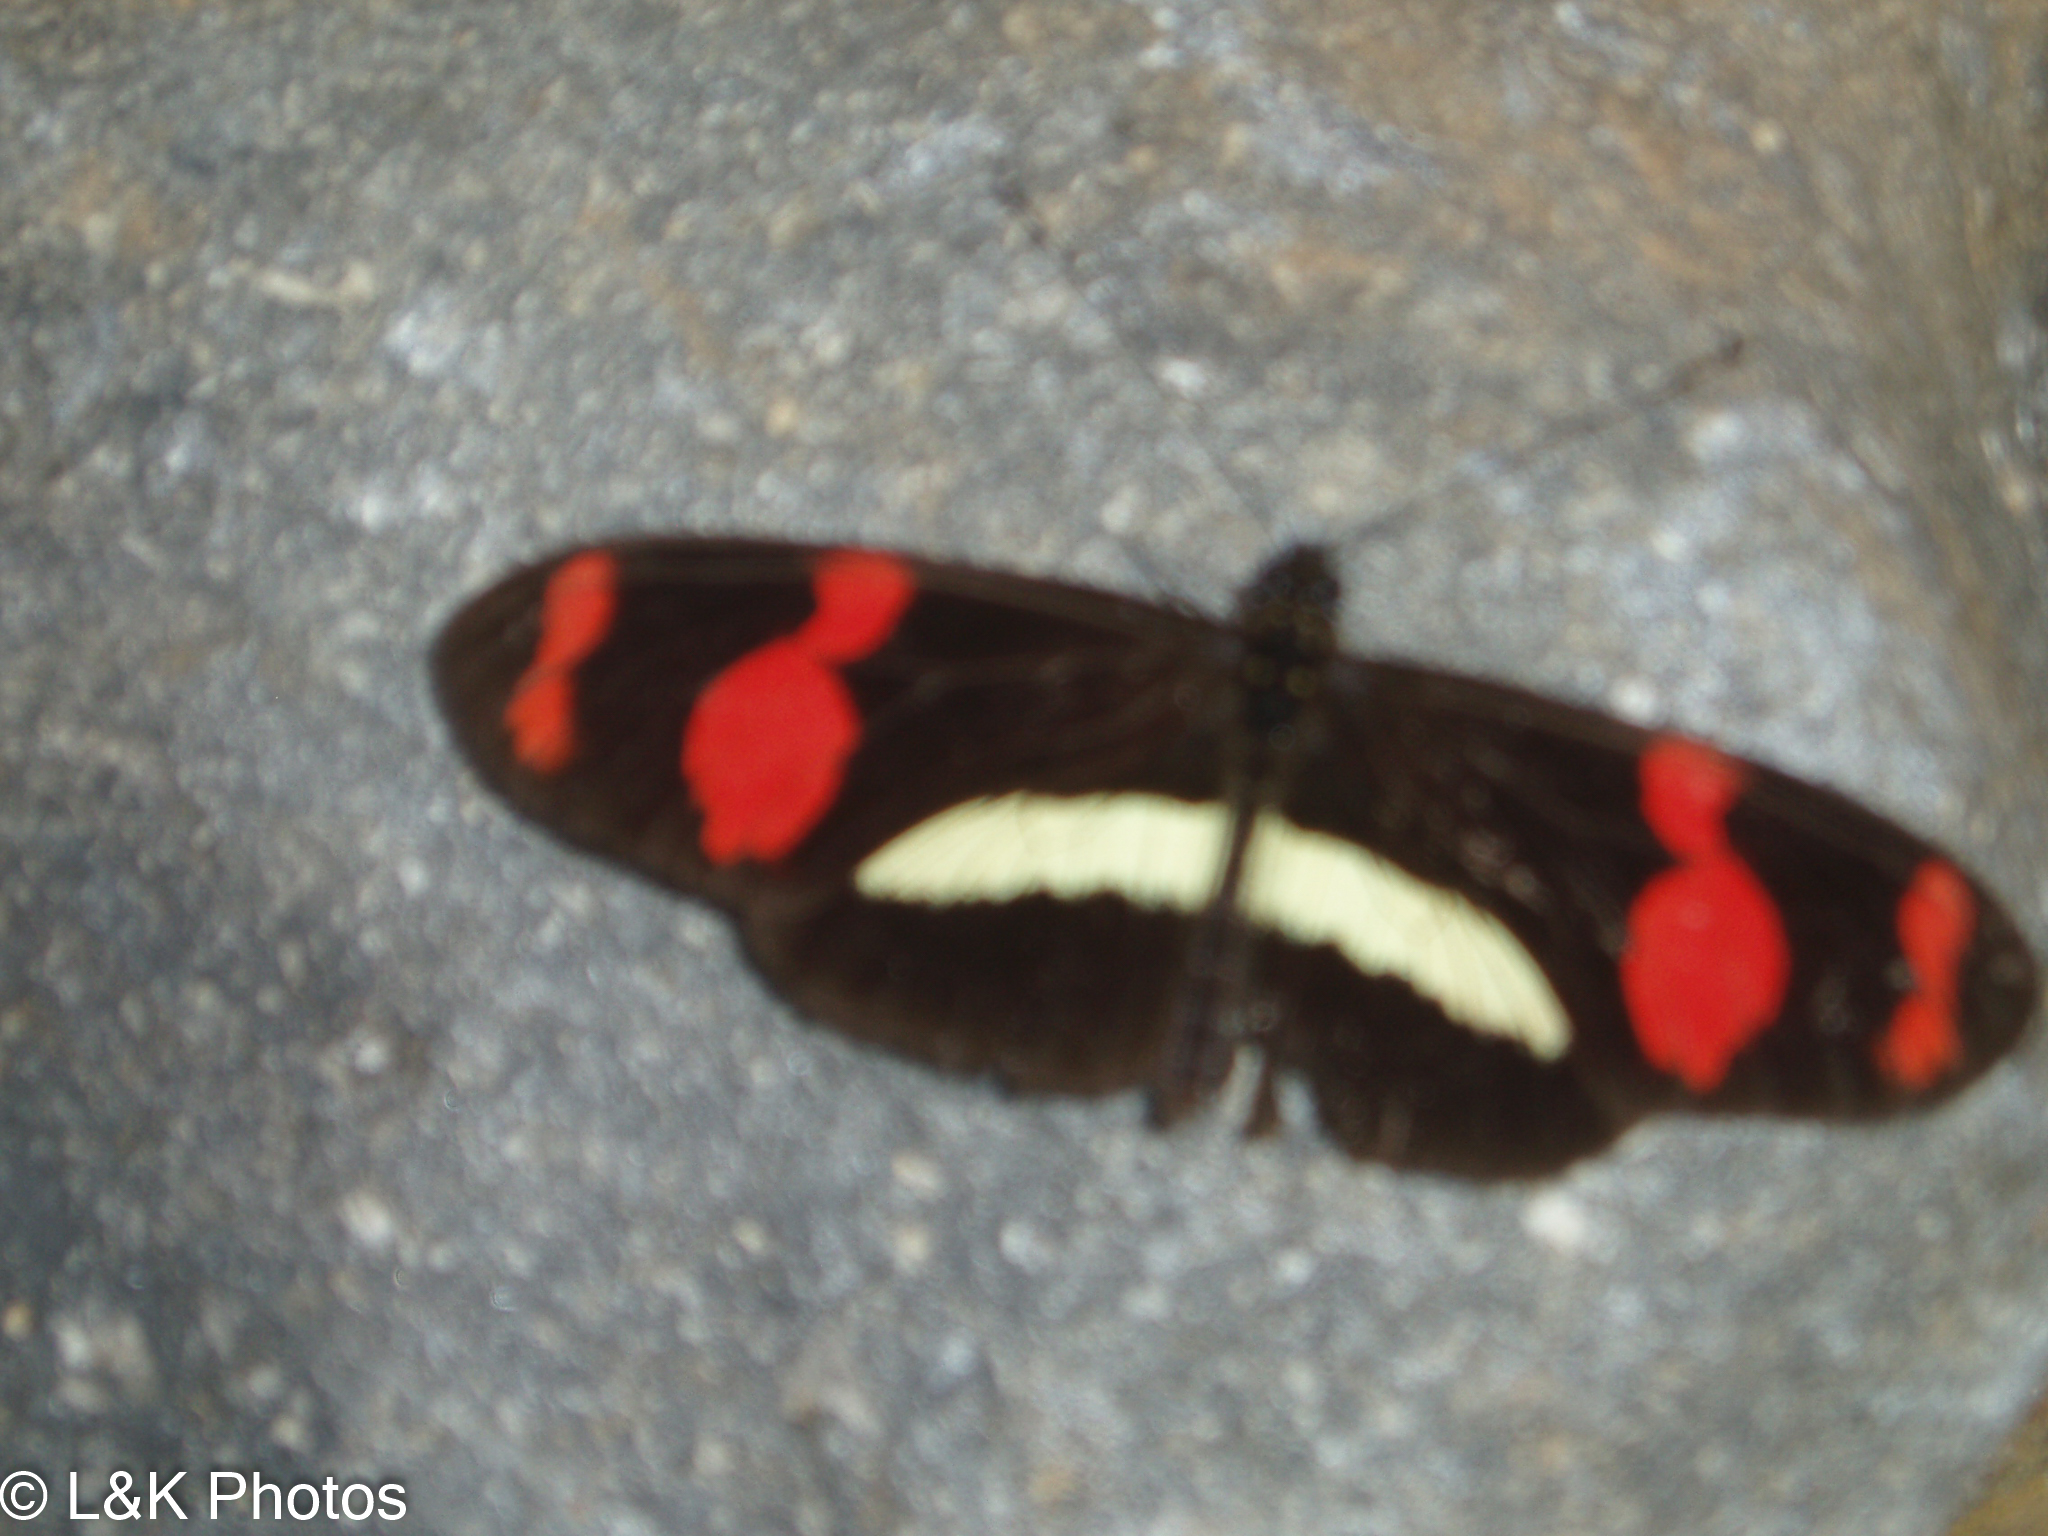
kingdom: Animalia
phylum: Arthropoda
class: Insecta
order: Lepidoptera
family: Nymphalidae
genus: Heliconius
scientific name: Heliconius telesiphe
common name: Telesiphe longwing
